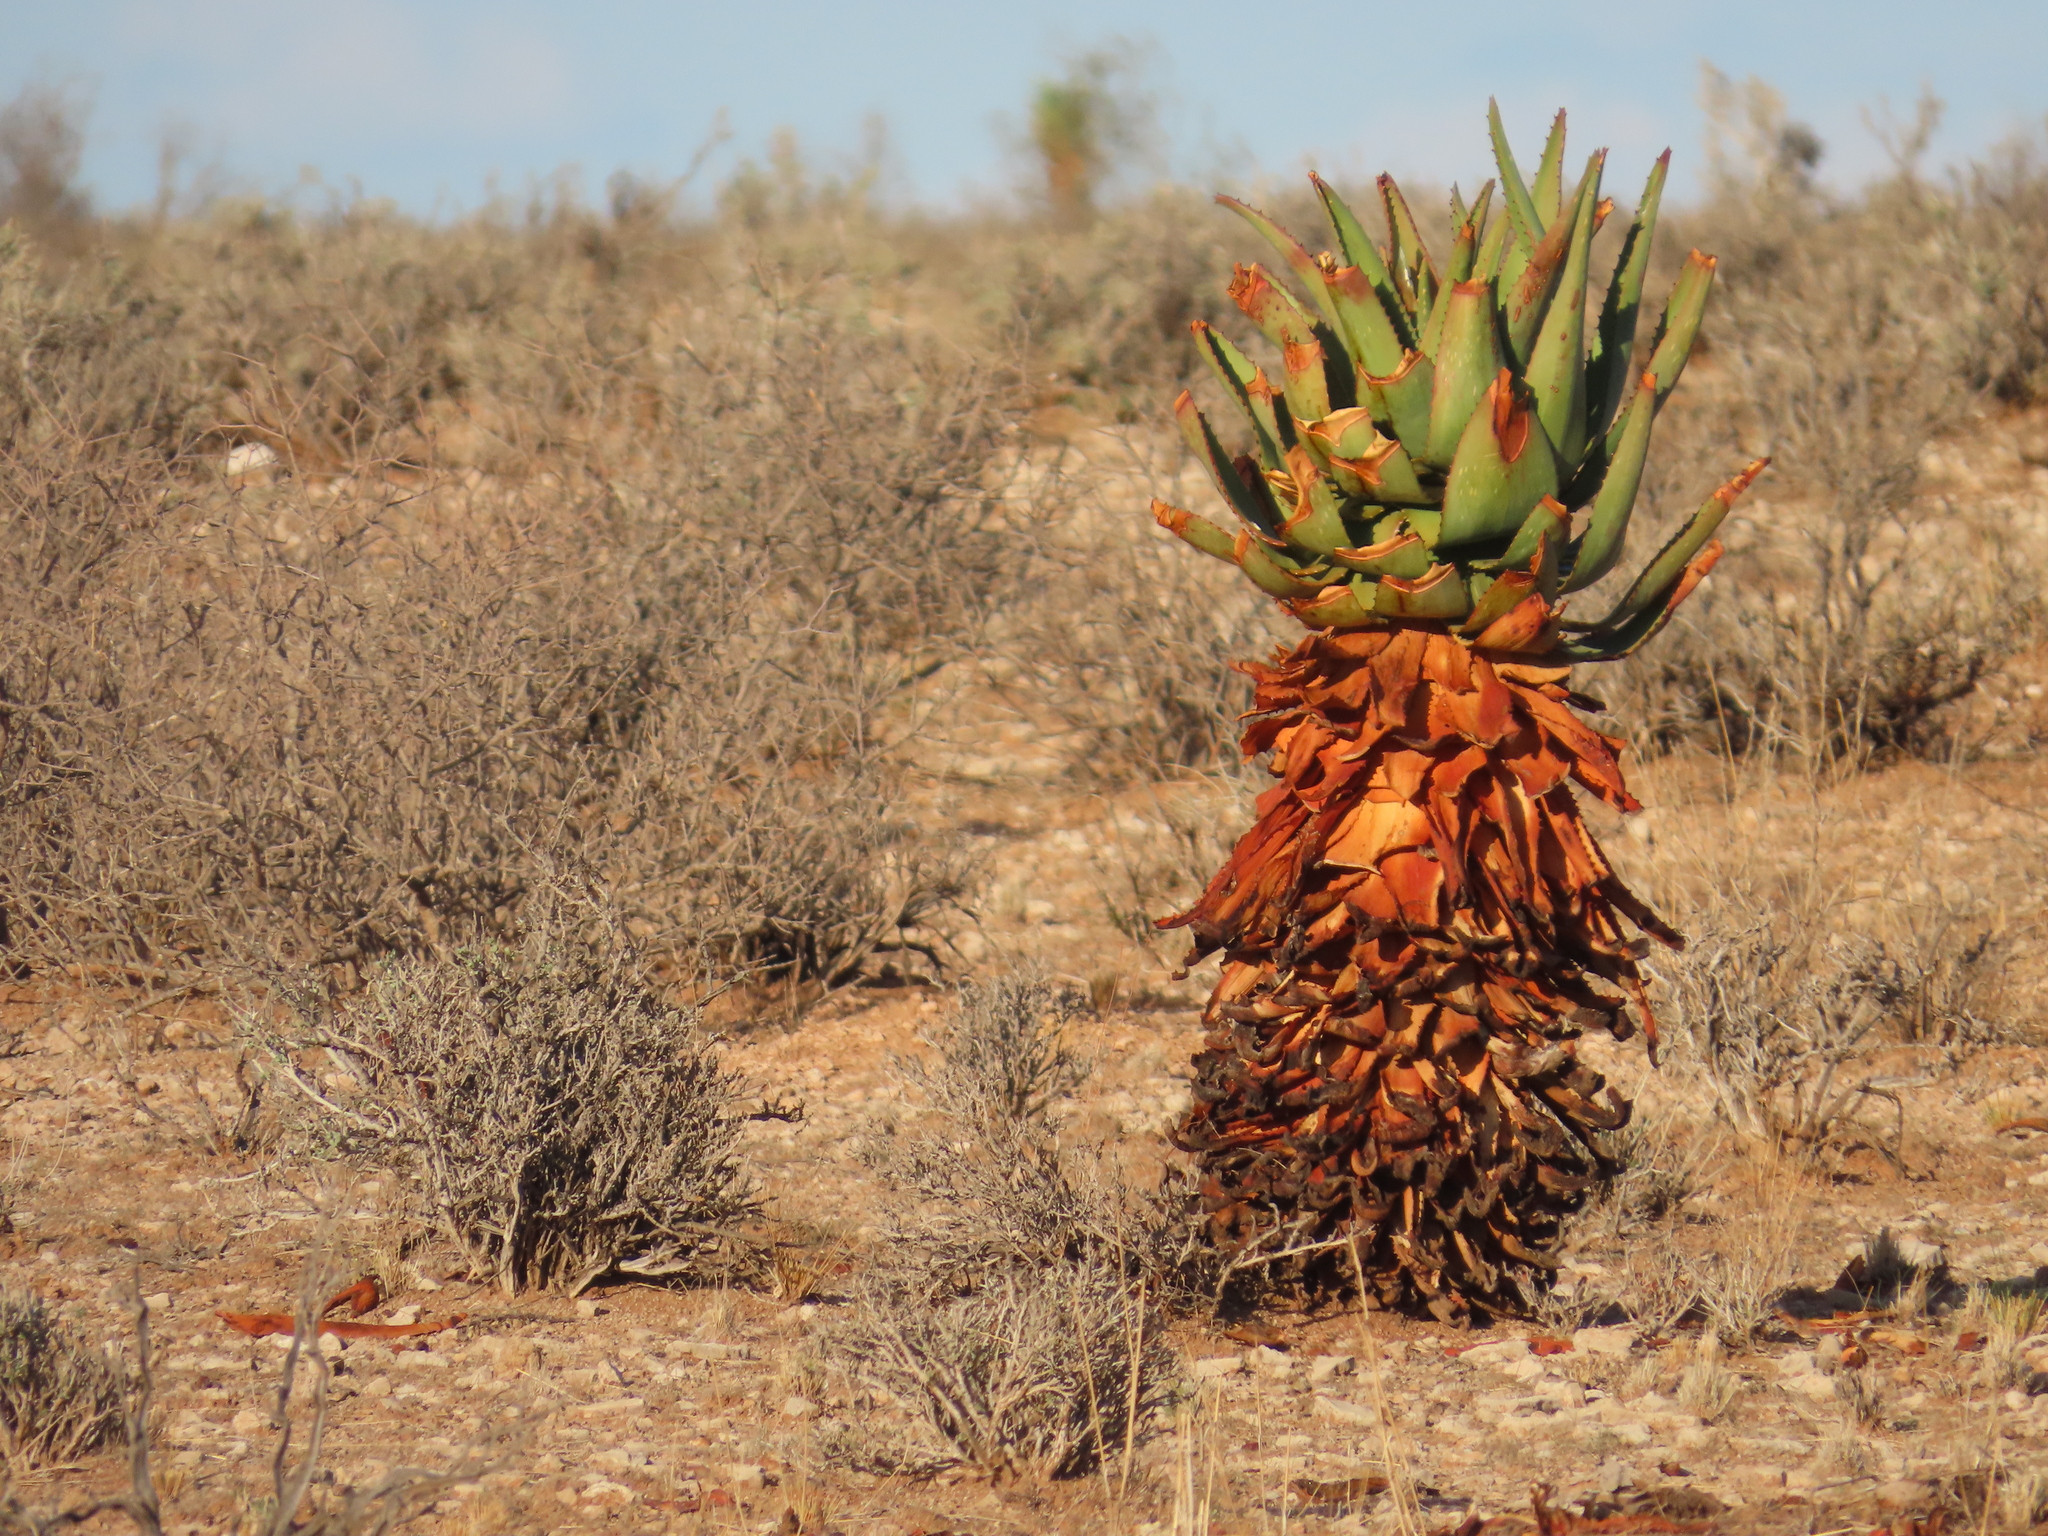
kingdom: Plantae
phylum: Tracheophyta
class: Liliopsida
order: Asparagales
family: Asphodelaceae
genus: Aloe
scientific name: Aloe littoralis
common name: Luanda tree aloe
